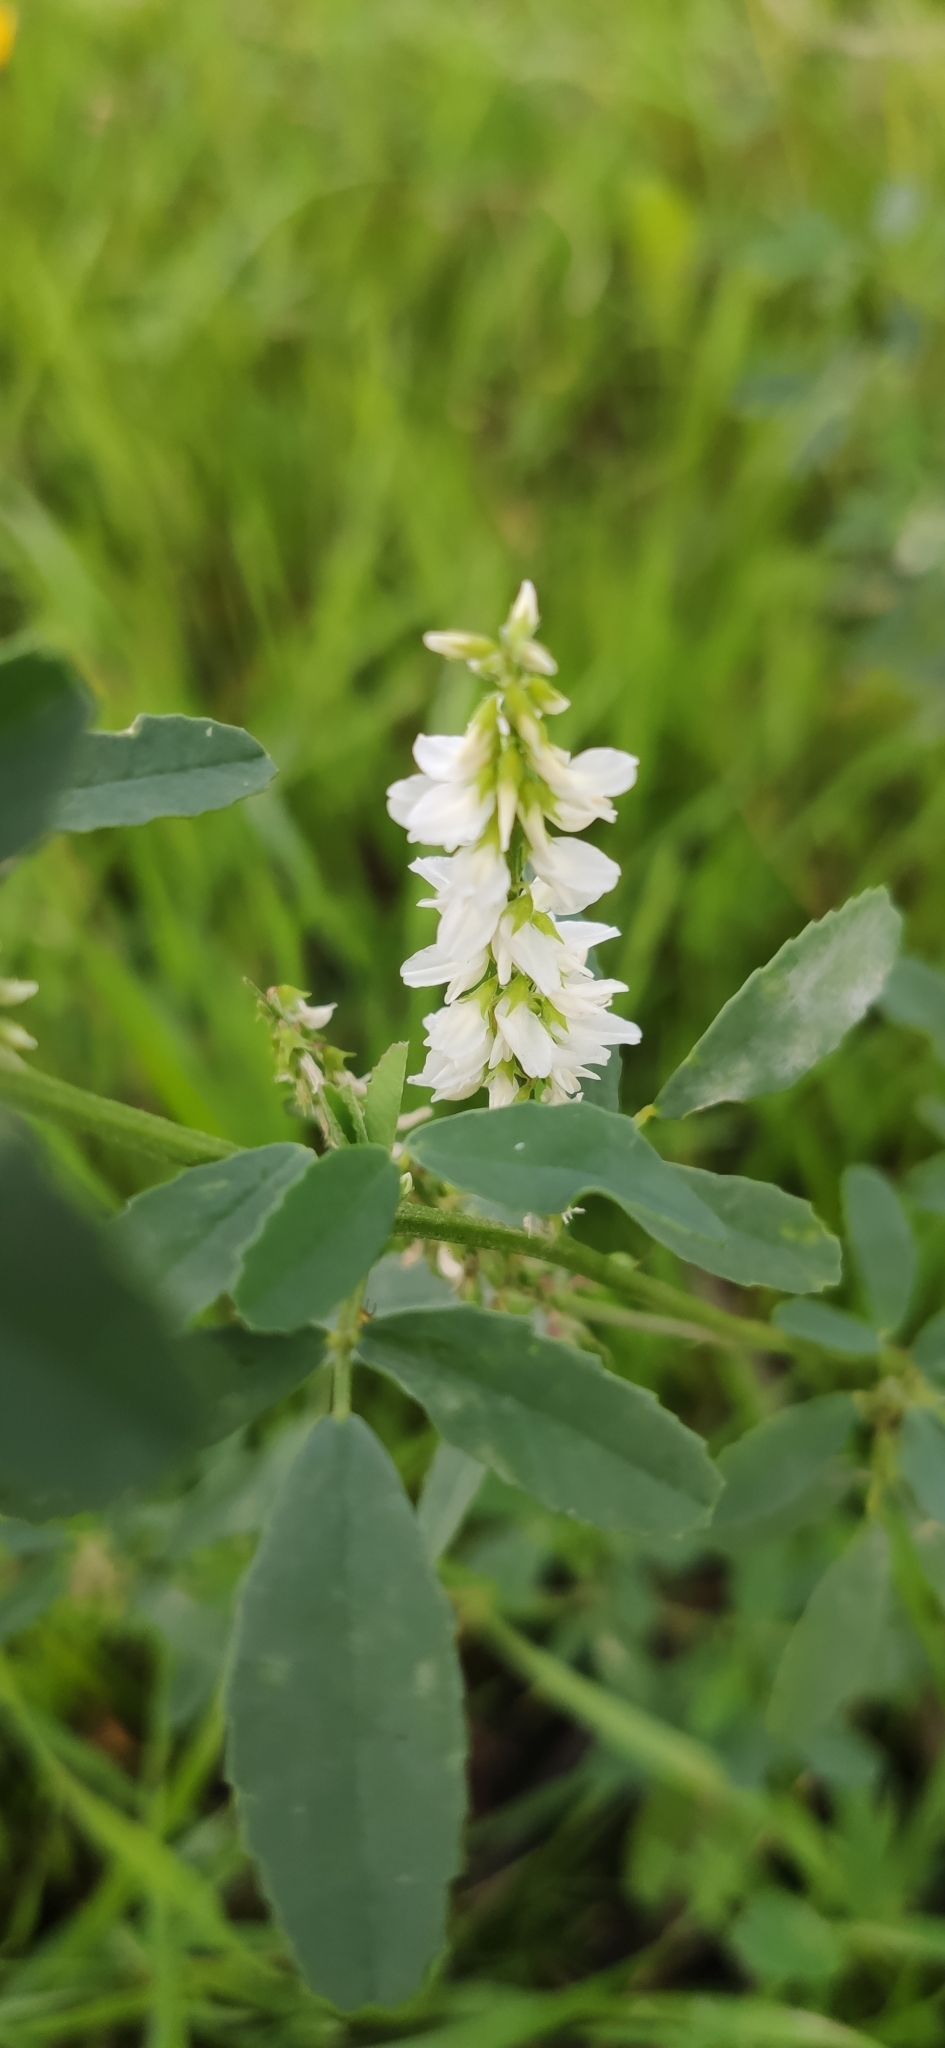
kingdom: Plantae
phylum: Tracheophyta
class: Magnoliopsida
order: Fabales
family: Fabaceae
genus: Melilotus
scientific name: Melilotus albus
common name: White melilot
